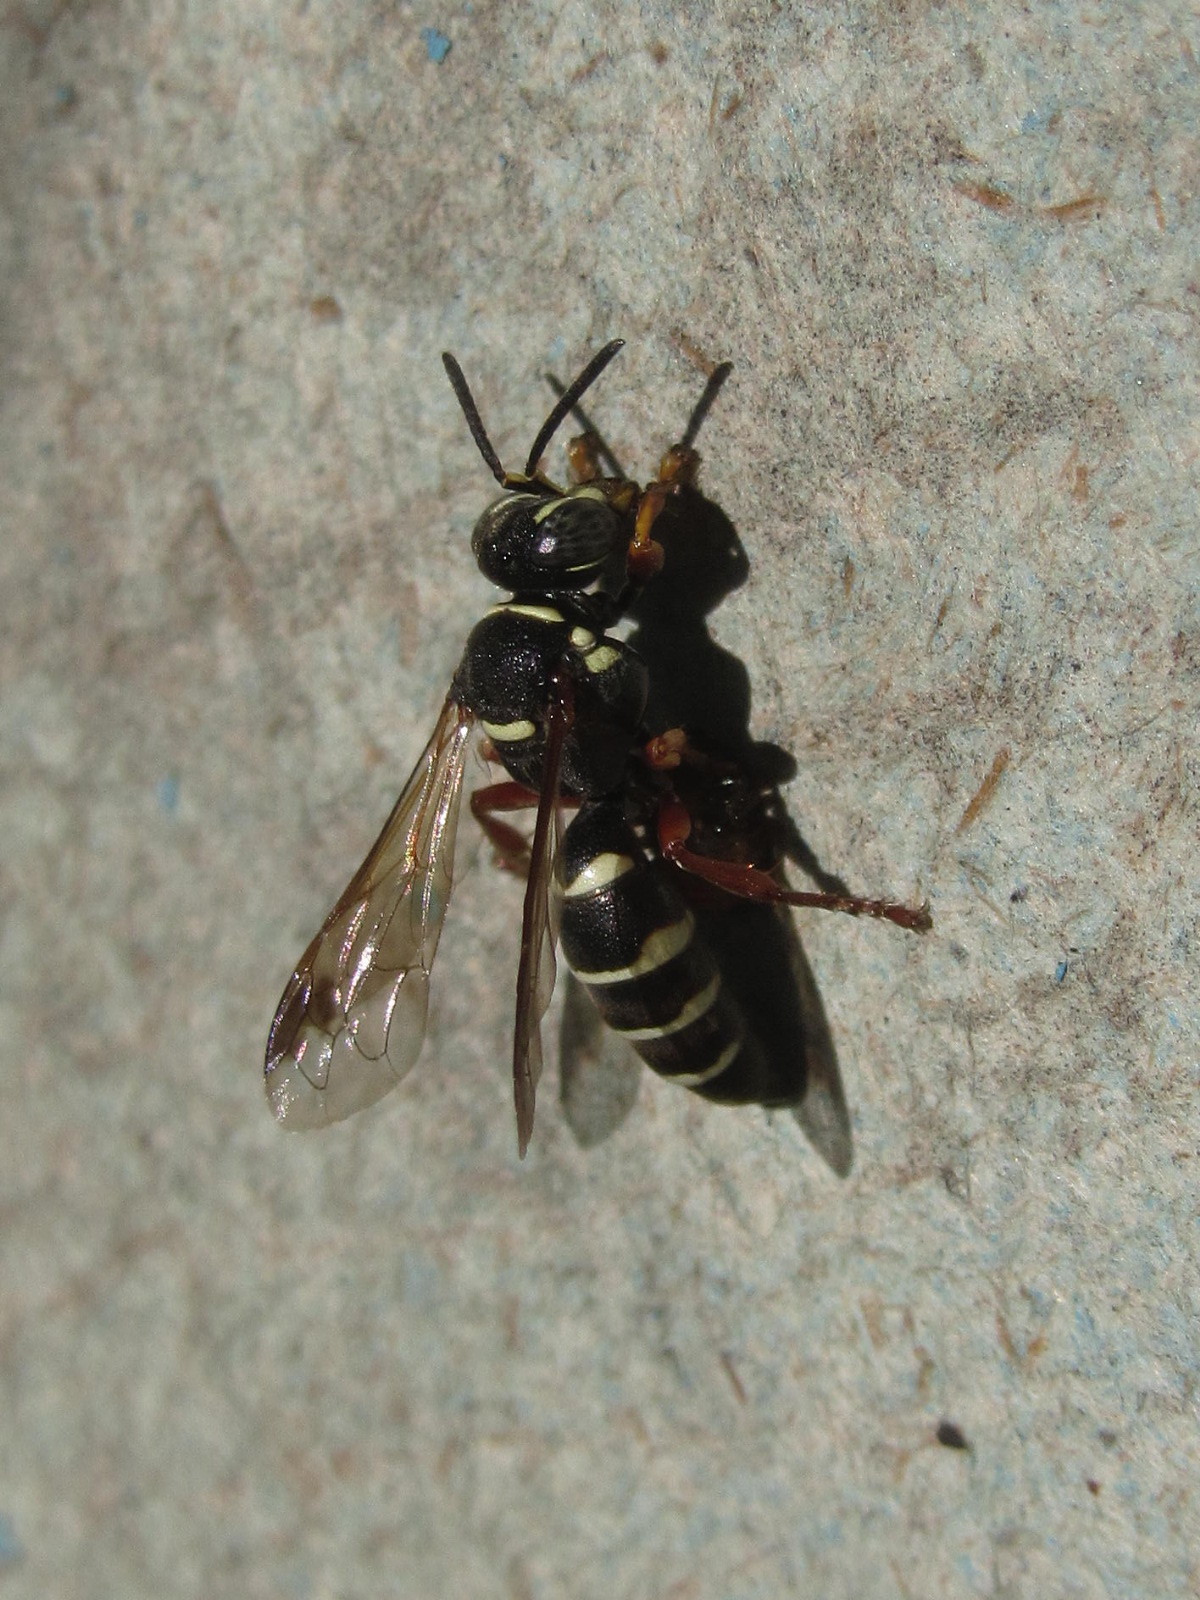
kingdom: Animalia
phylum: Arthropoda
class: Insecta
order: Hymenoptera
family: Crabronidae
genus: Psammaecius
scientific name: Psammaecius punctulatus
